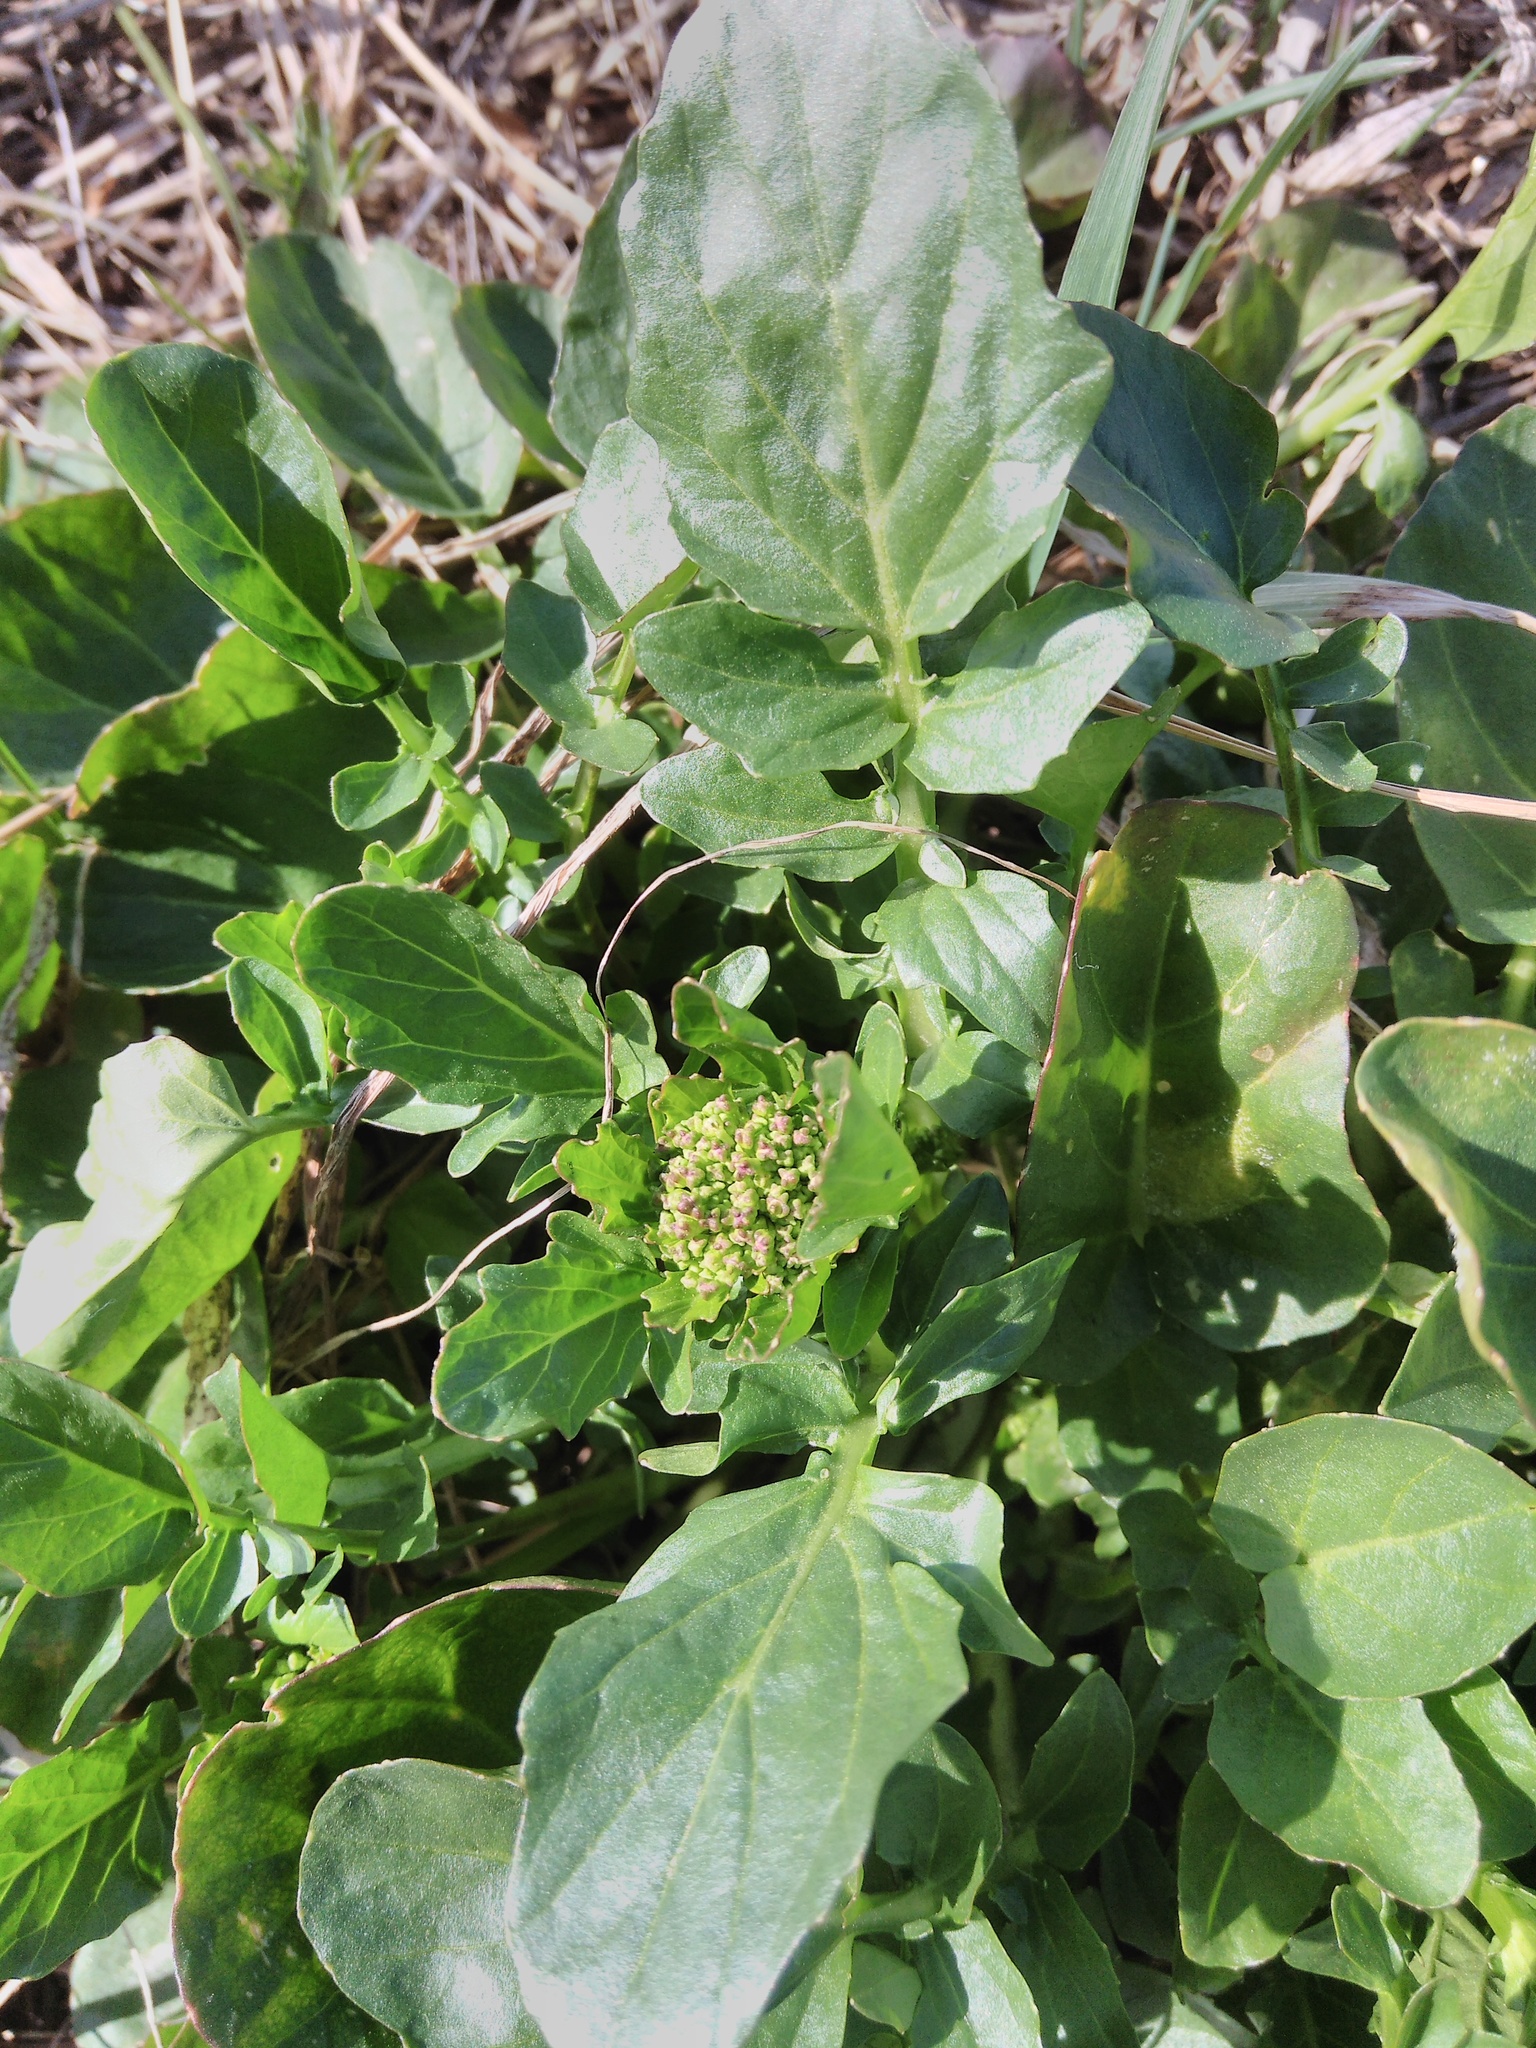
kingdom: Plantae
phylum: Tracheophyta
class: Magnoliopsida
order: Brassicales
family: Brassicaceae
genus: Barbarea
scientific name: Barbarea vulgaris
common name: Cressy-greens
